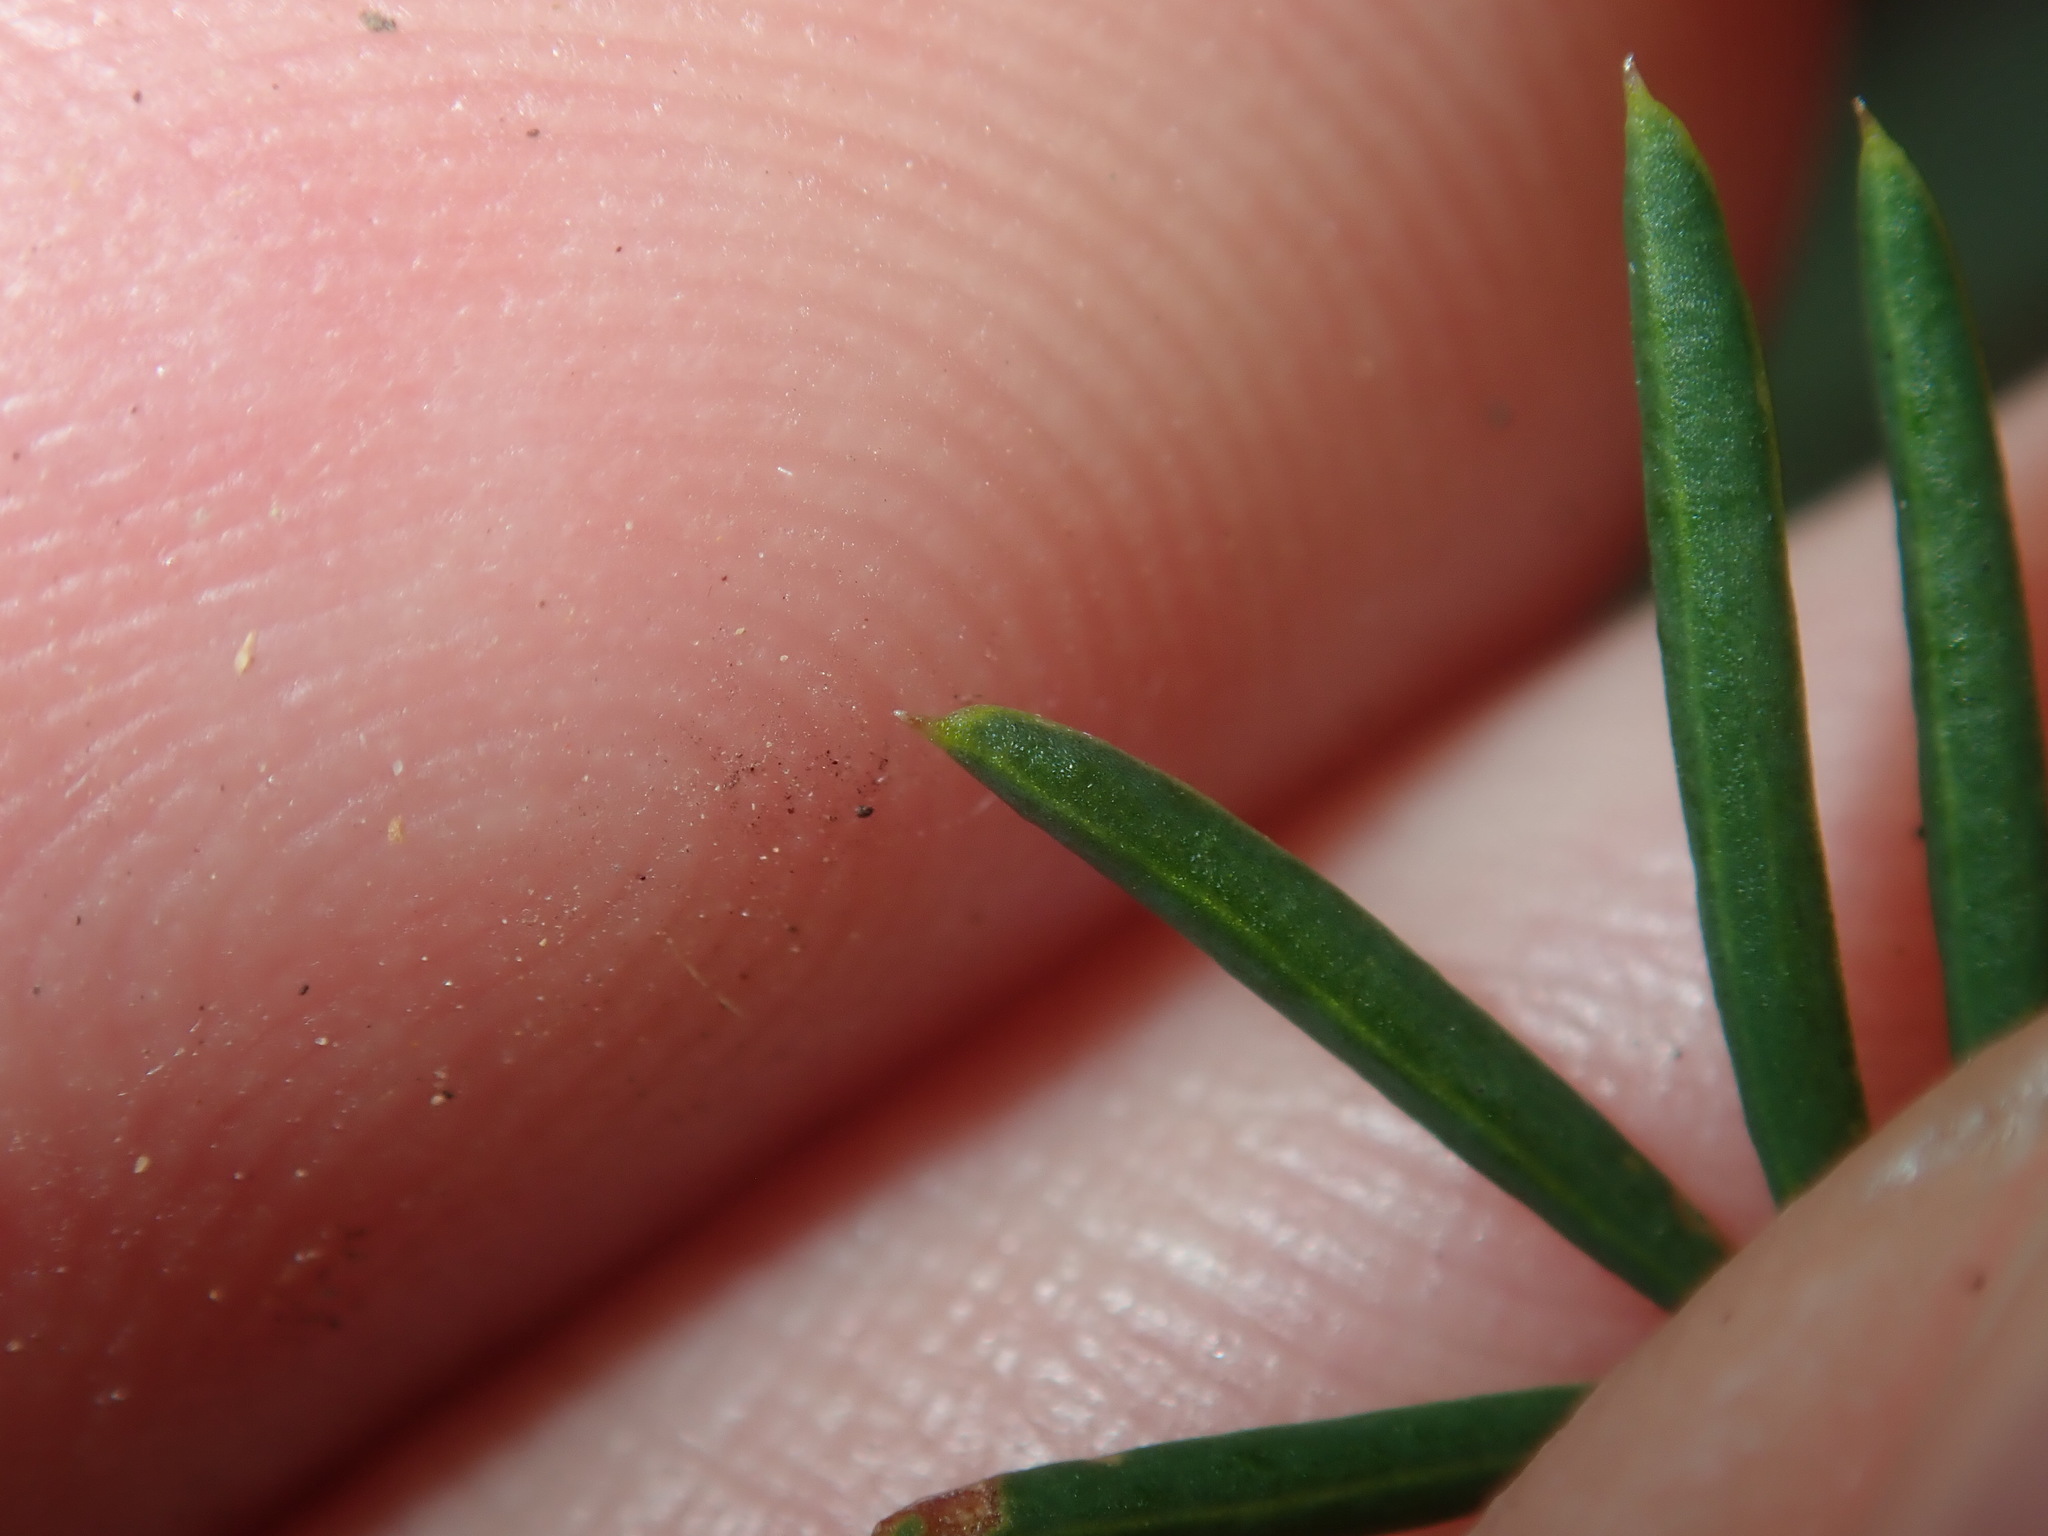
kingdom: Plantae
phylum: Tracheophyta
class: Magnoliopsida
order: Fabales
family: Fabaceae
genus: Gompholobium
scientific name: Gompholobium pinnatum
